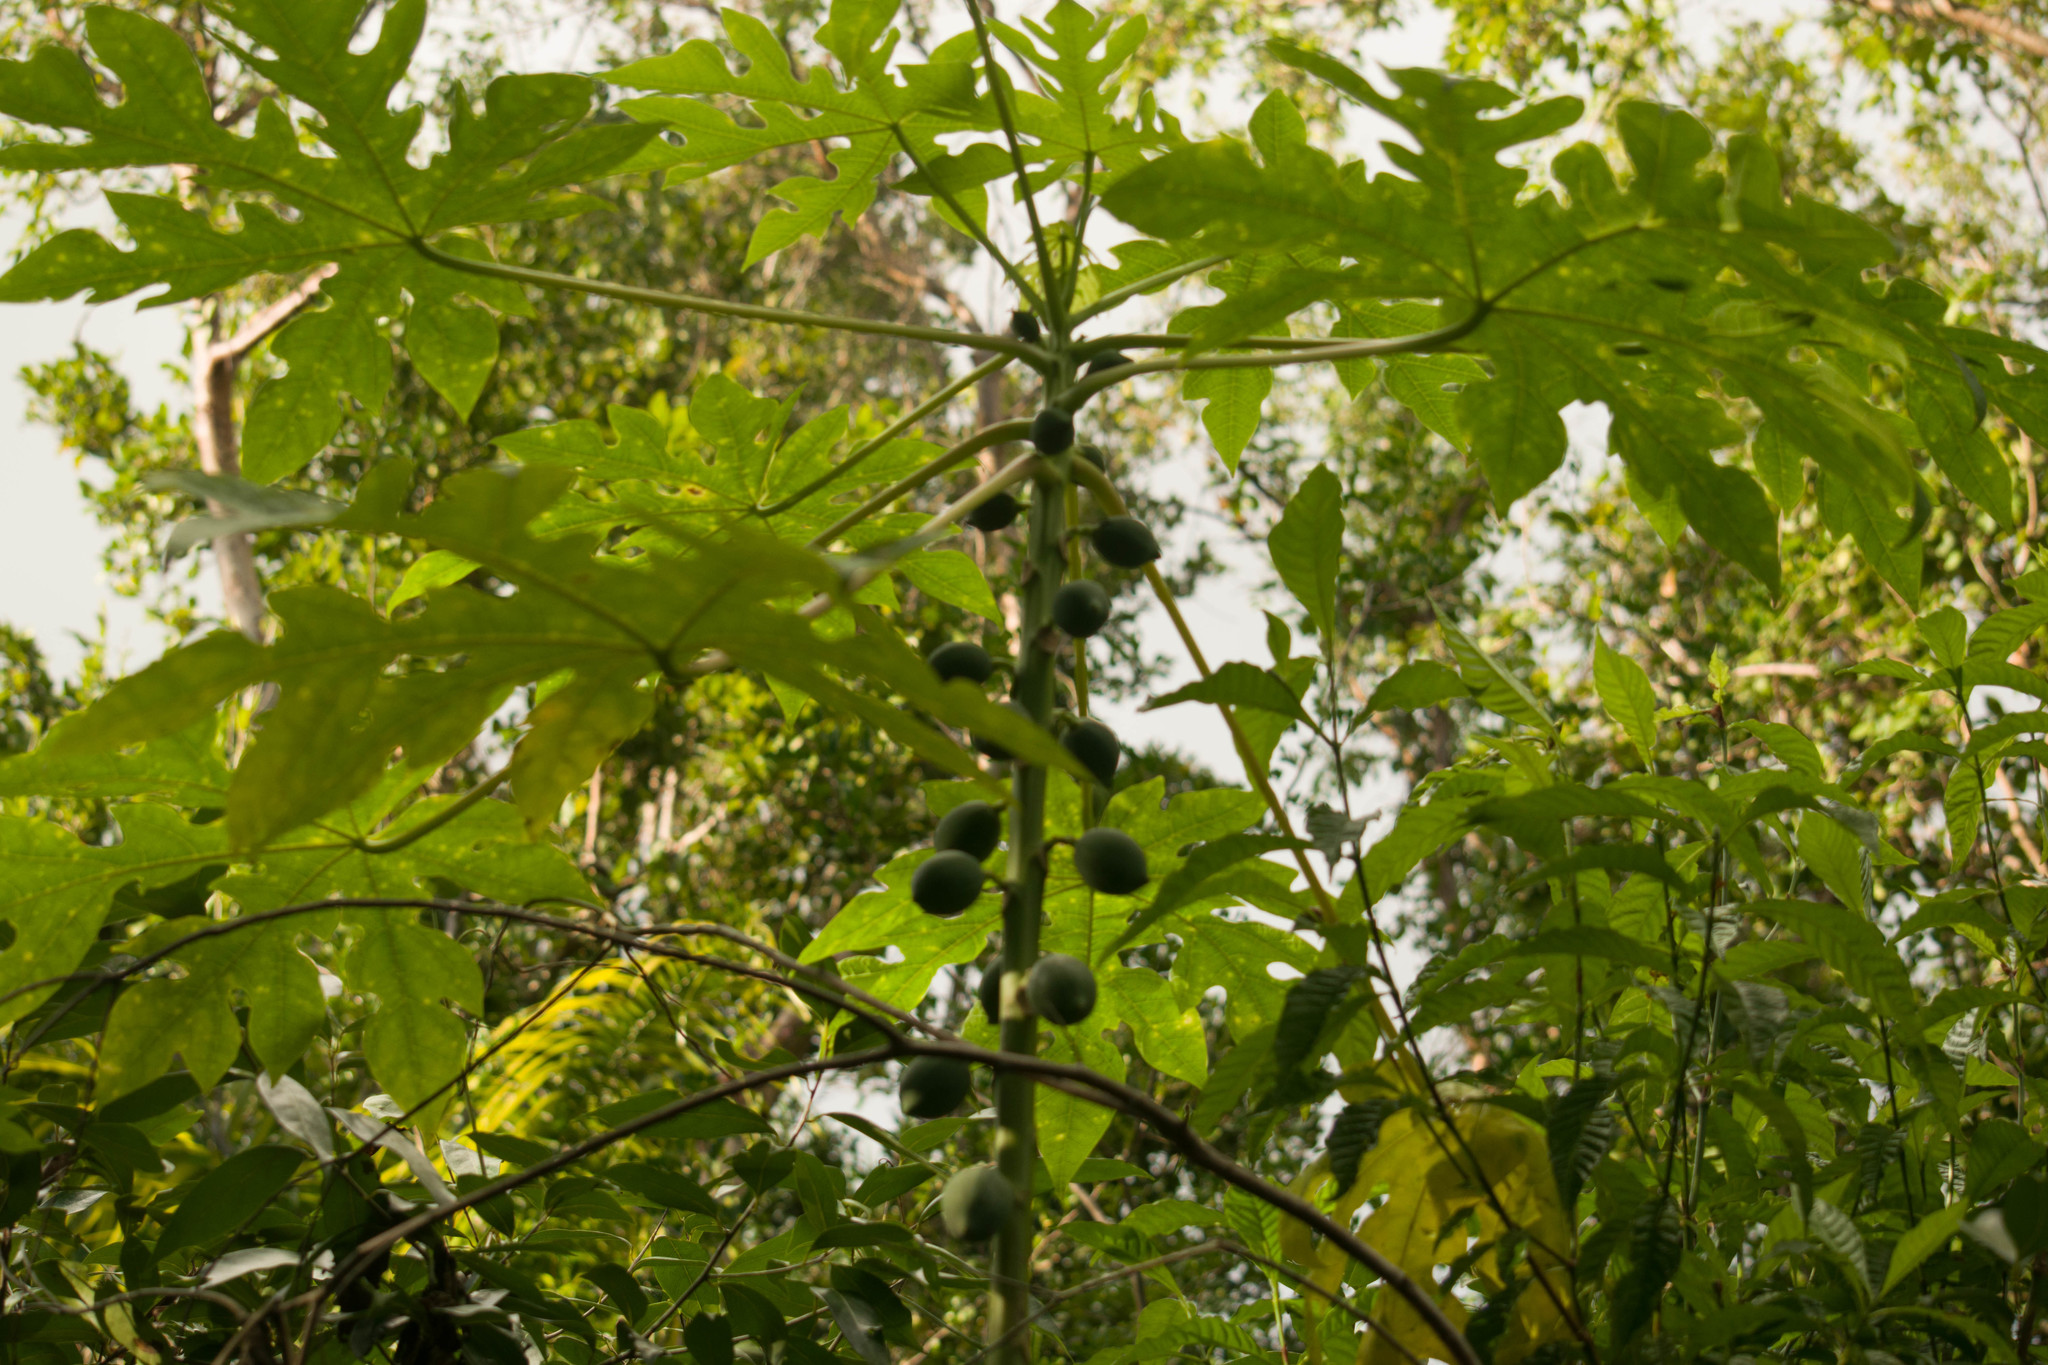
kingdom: Plantae
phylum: Tracheophyta
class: Magnoliopsida
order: Brassicales
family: Caricaceae
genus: Carica
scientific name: Carica papaya
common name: Papaya
